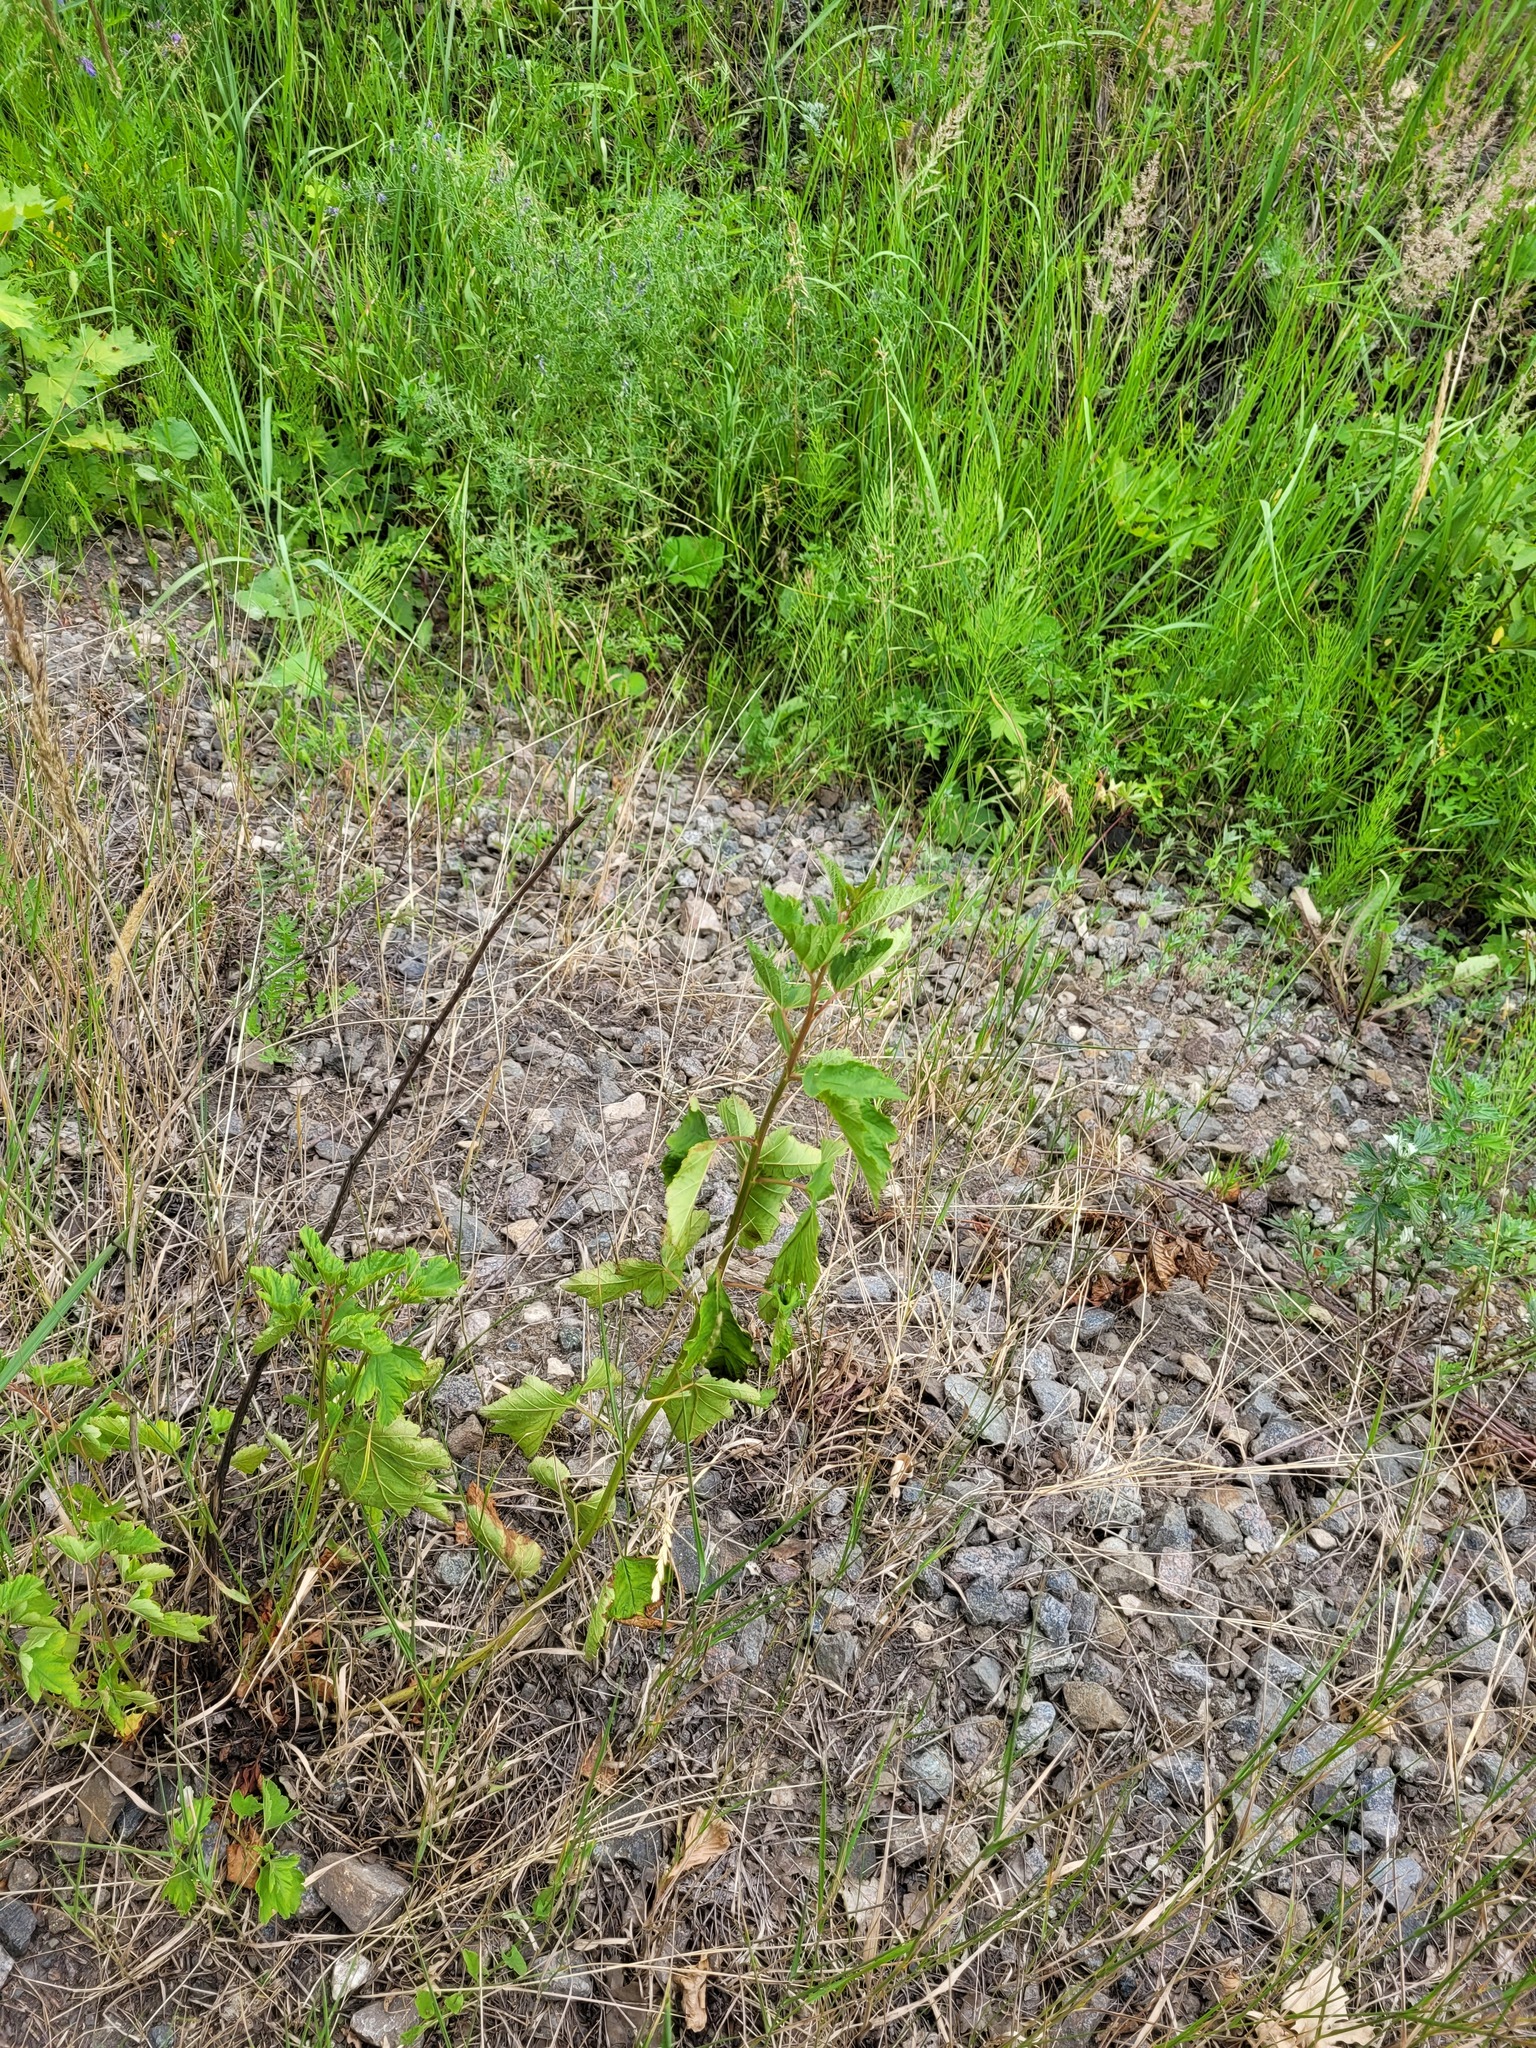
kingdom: Plantae
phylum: Tracheophyta
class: Magnoliopsida
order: Rosales
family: Rosaceae
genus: Physocarpus
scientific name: Physocarpus opulifolius
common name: Ninebark
